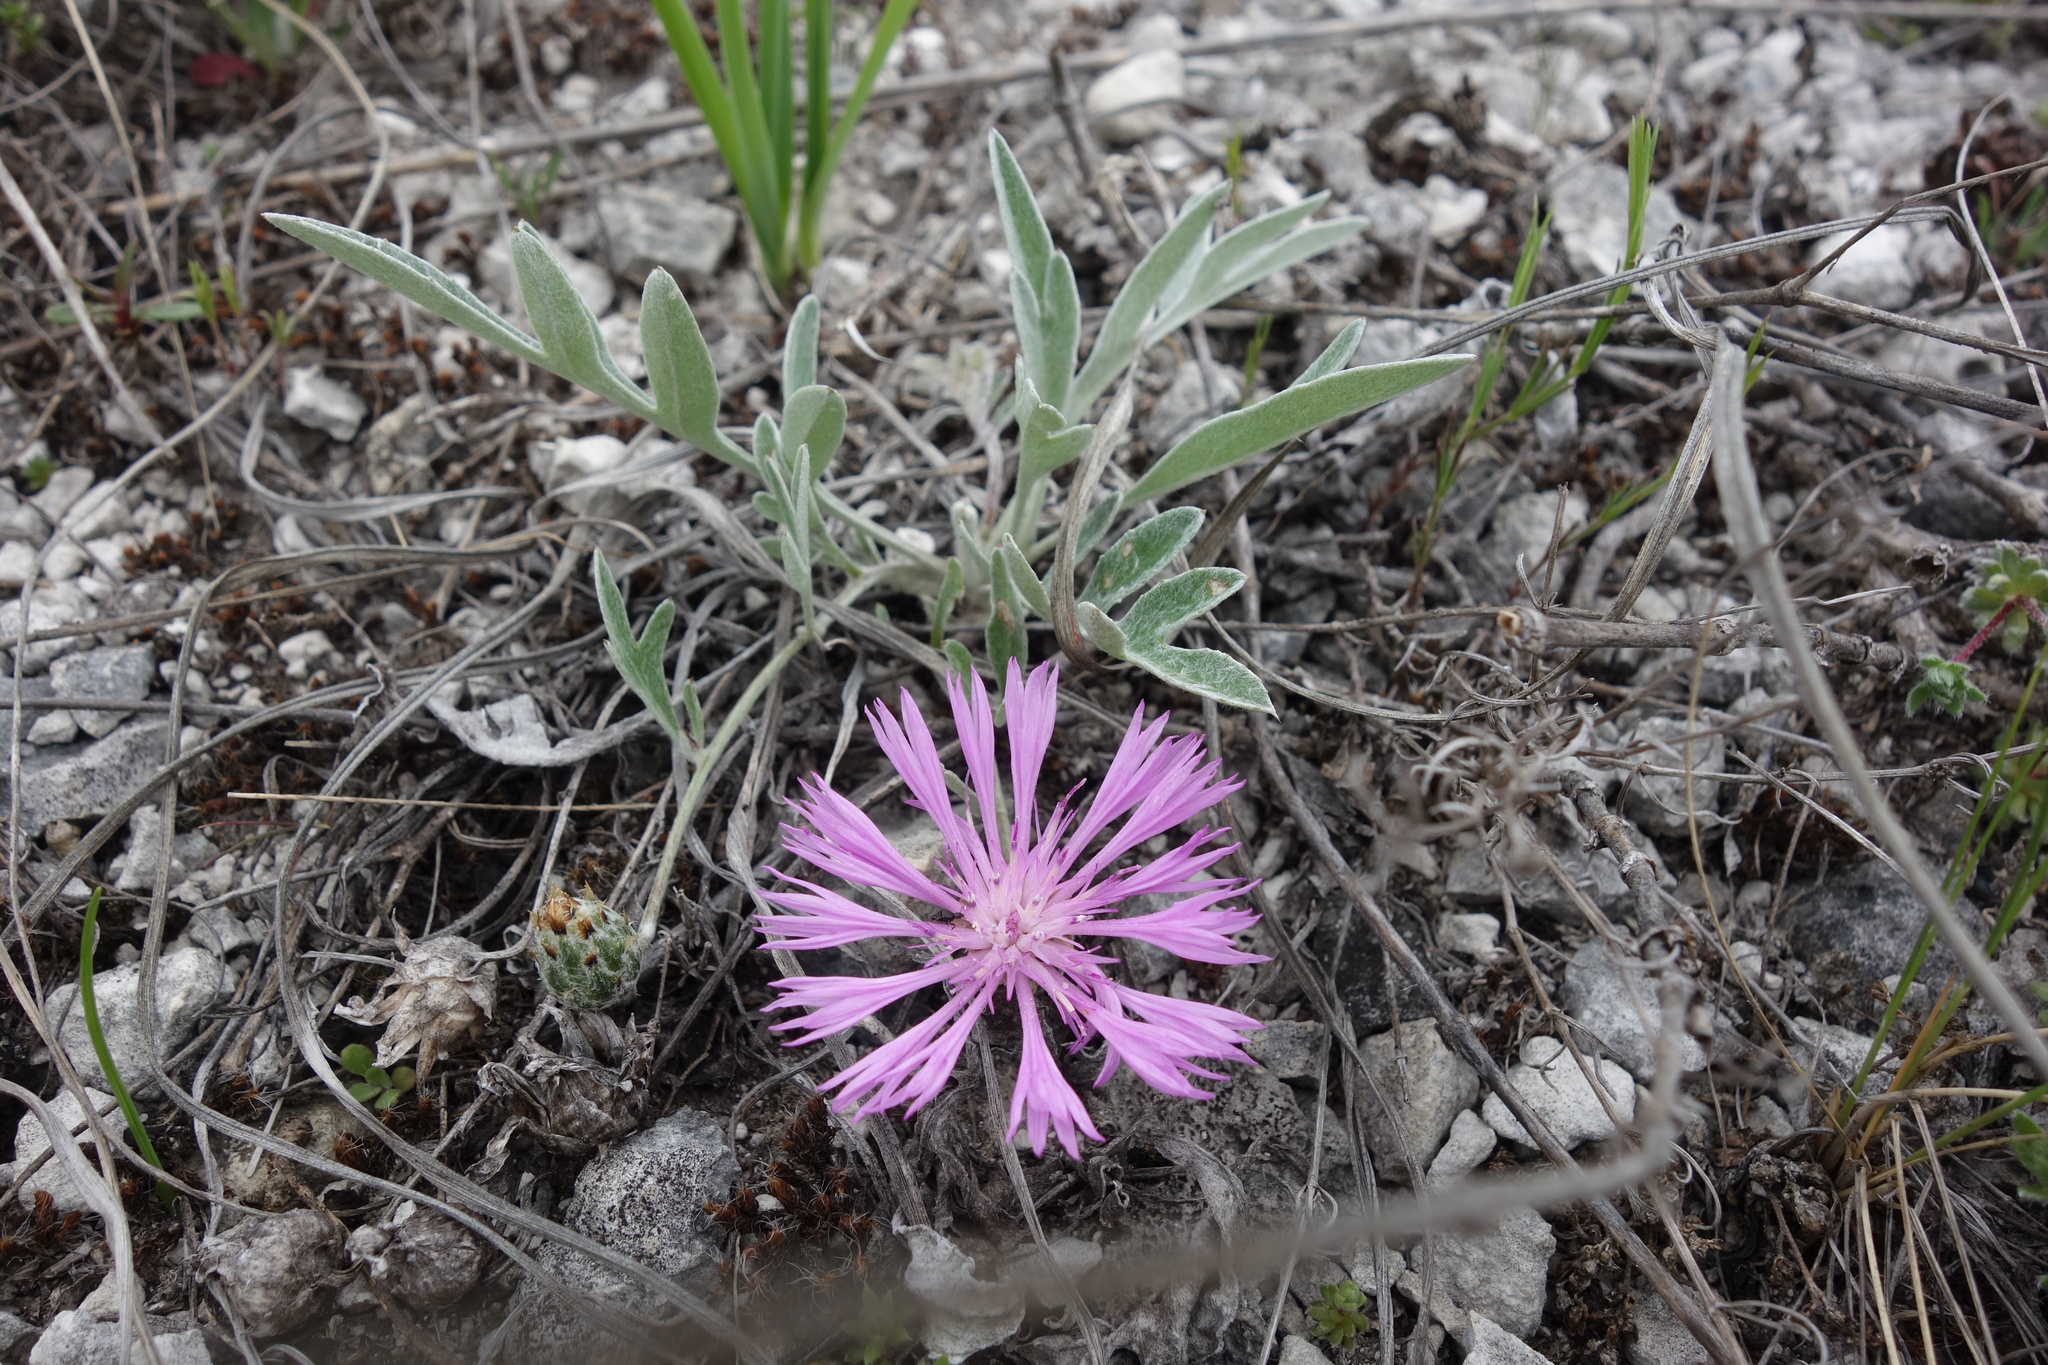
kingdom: Plantae
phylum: Tracheophyta
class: Magnoliopsida
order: Asterales
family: Asteraceae
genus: Psephellus
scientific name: Psephellus sumensis
